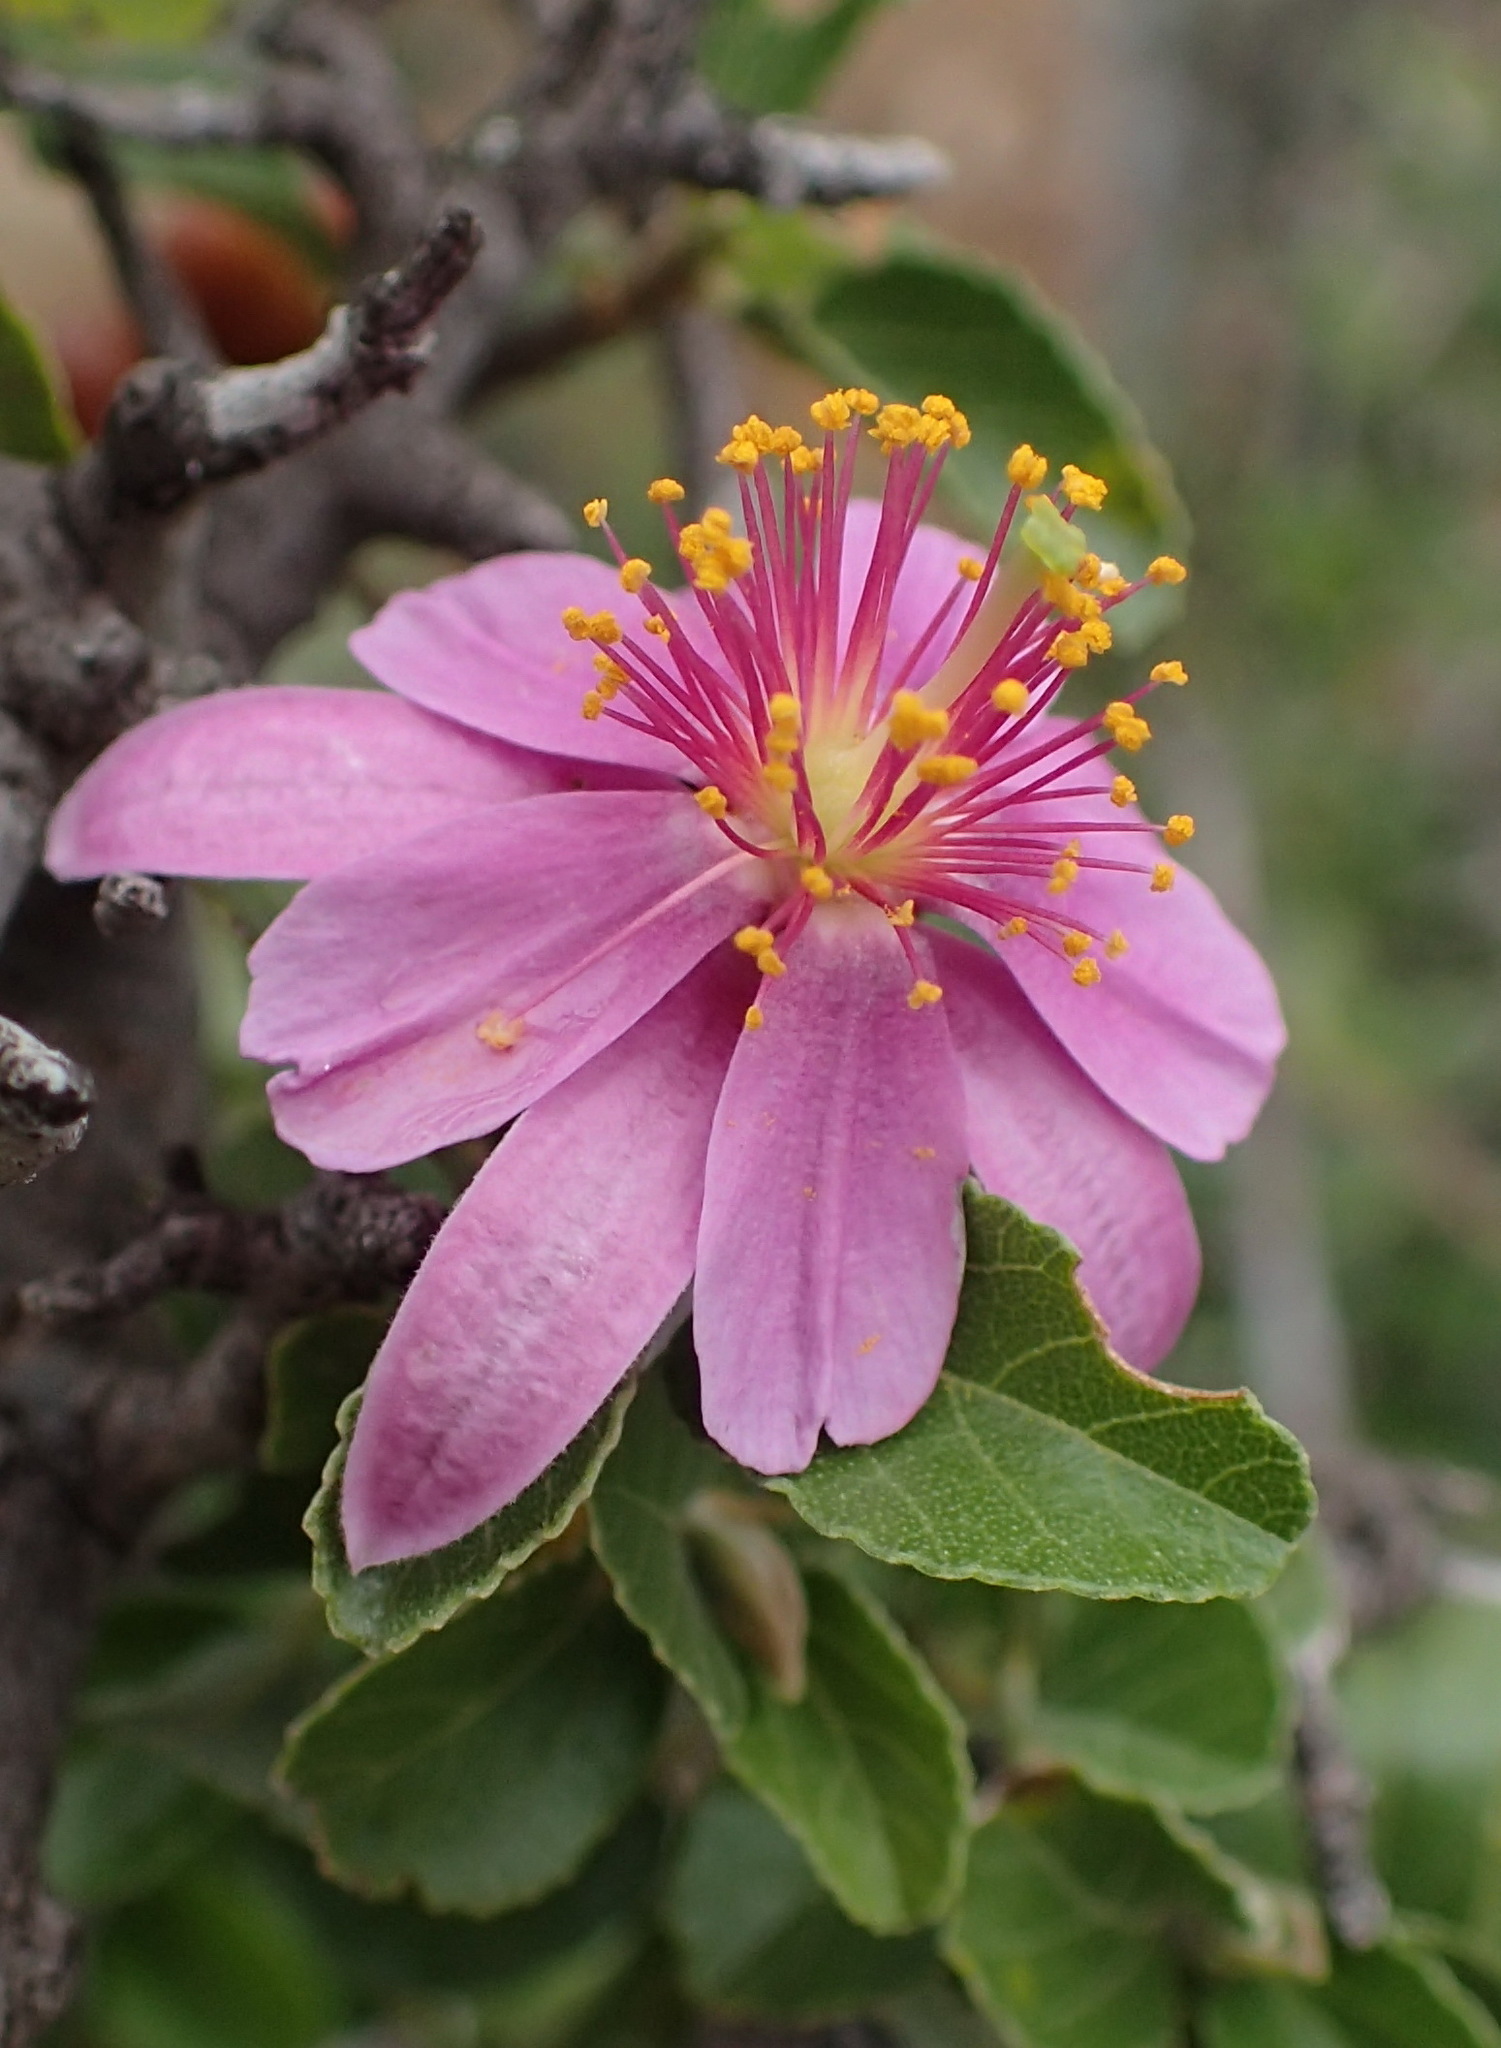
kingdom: Plantae
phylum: Tracheophyta
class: Magnoliopsida
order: Malvales
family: Malvaceae
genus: Grewia
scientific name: Grewia robusta
